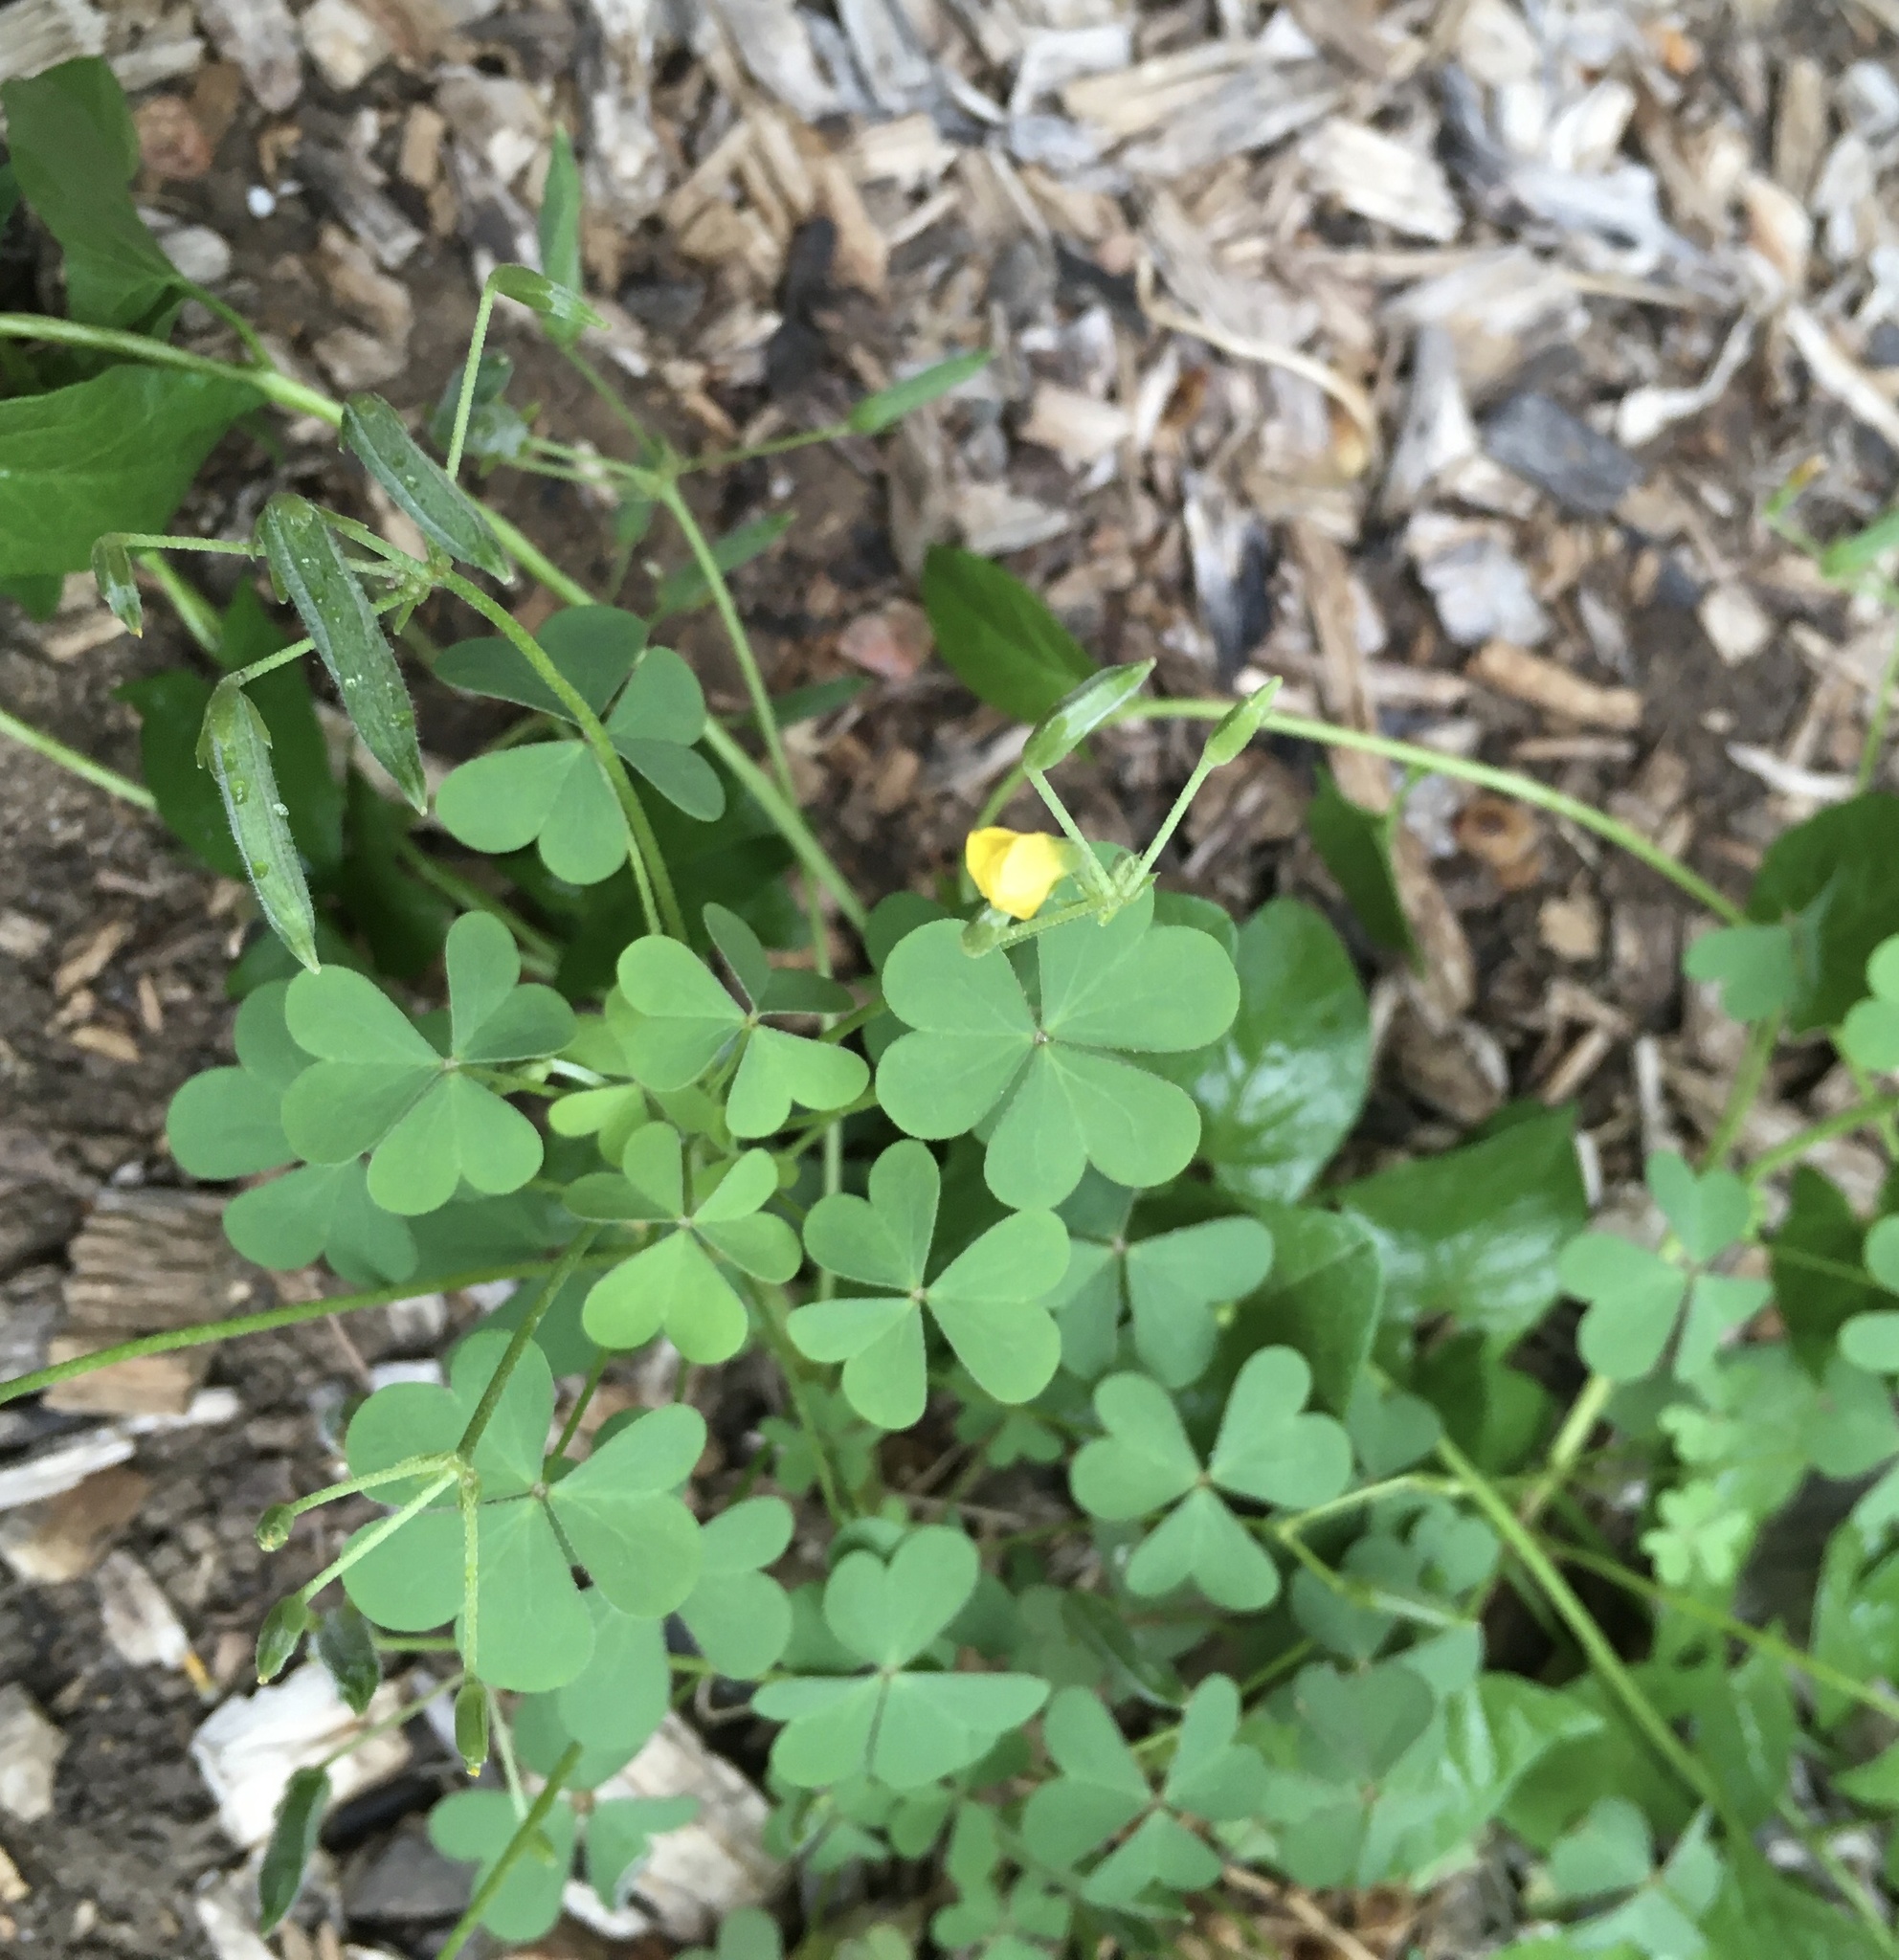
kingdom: Plantae
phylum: Tracheophyta
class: Magnoliopsida
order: Oxalidales
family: Oxalidaceae
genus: Oxalis
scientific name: Oxalis dillenii
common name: Sussex yellow-sorrel
